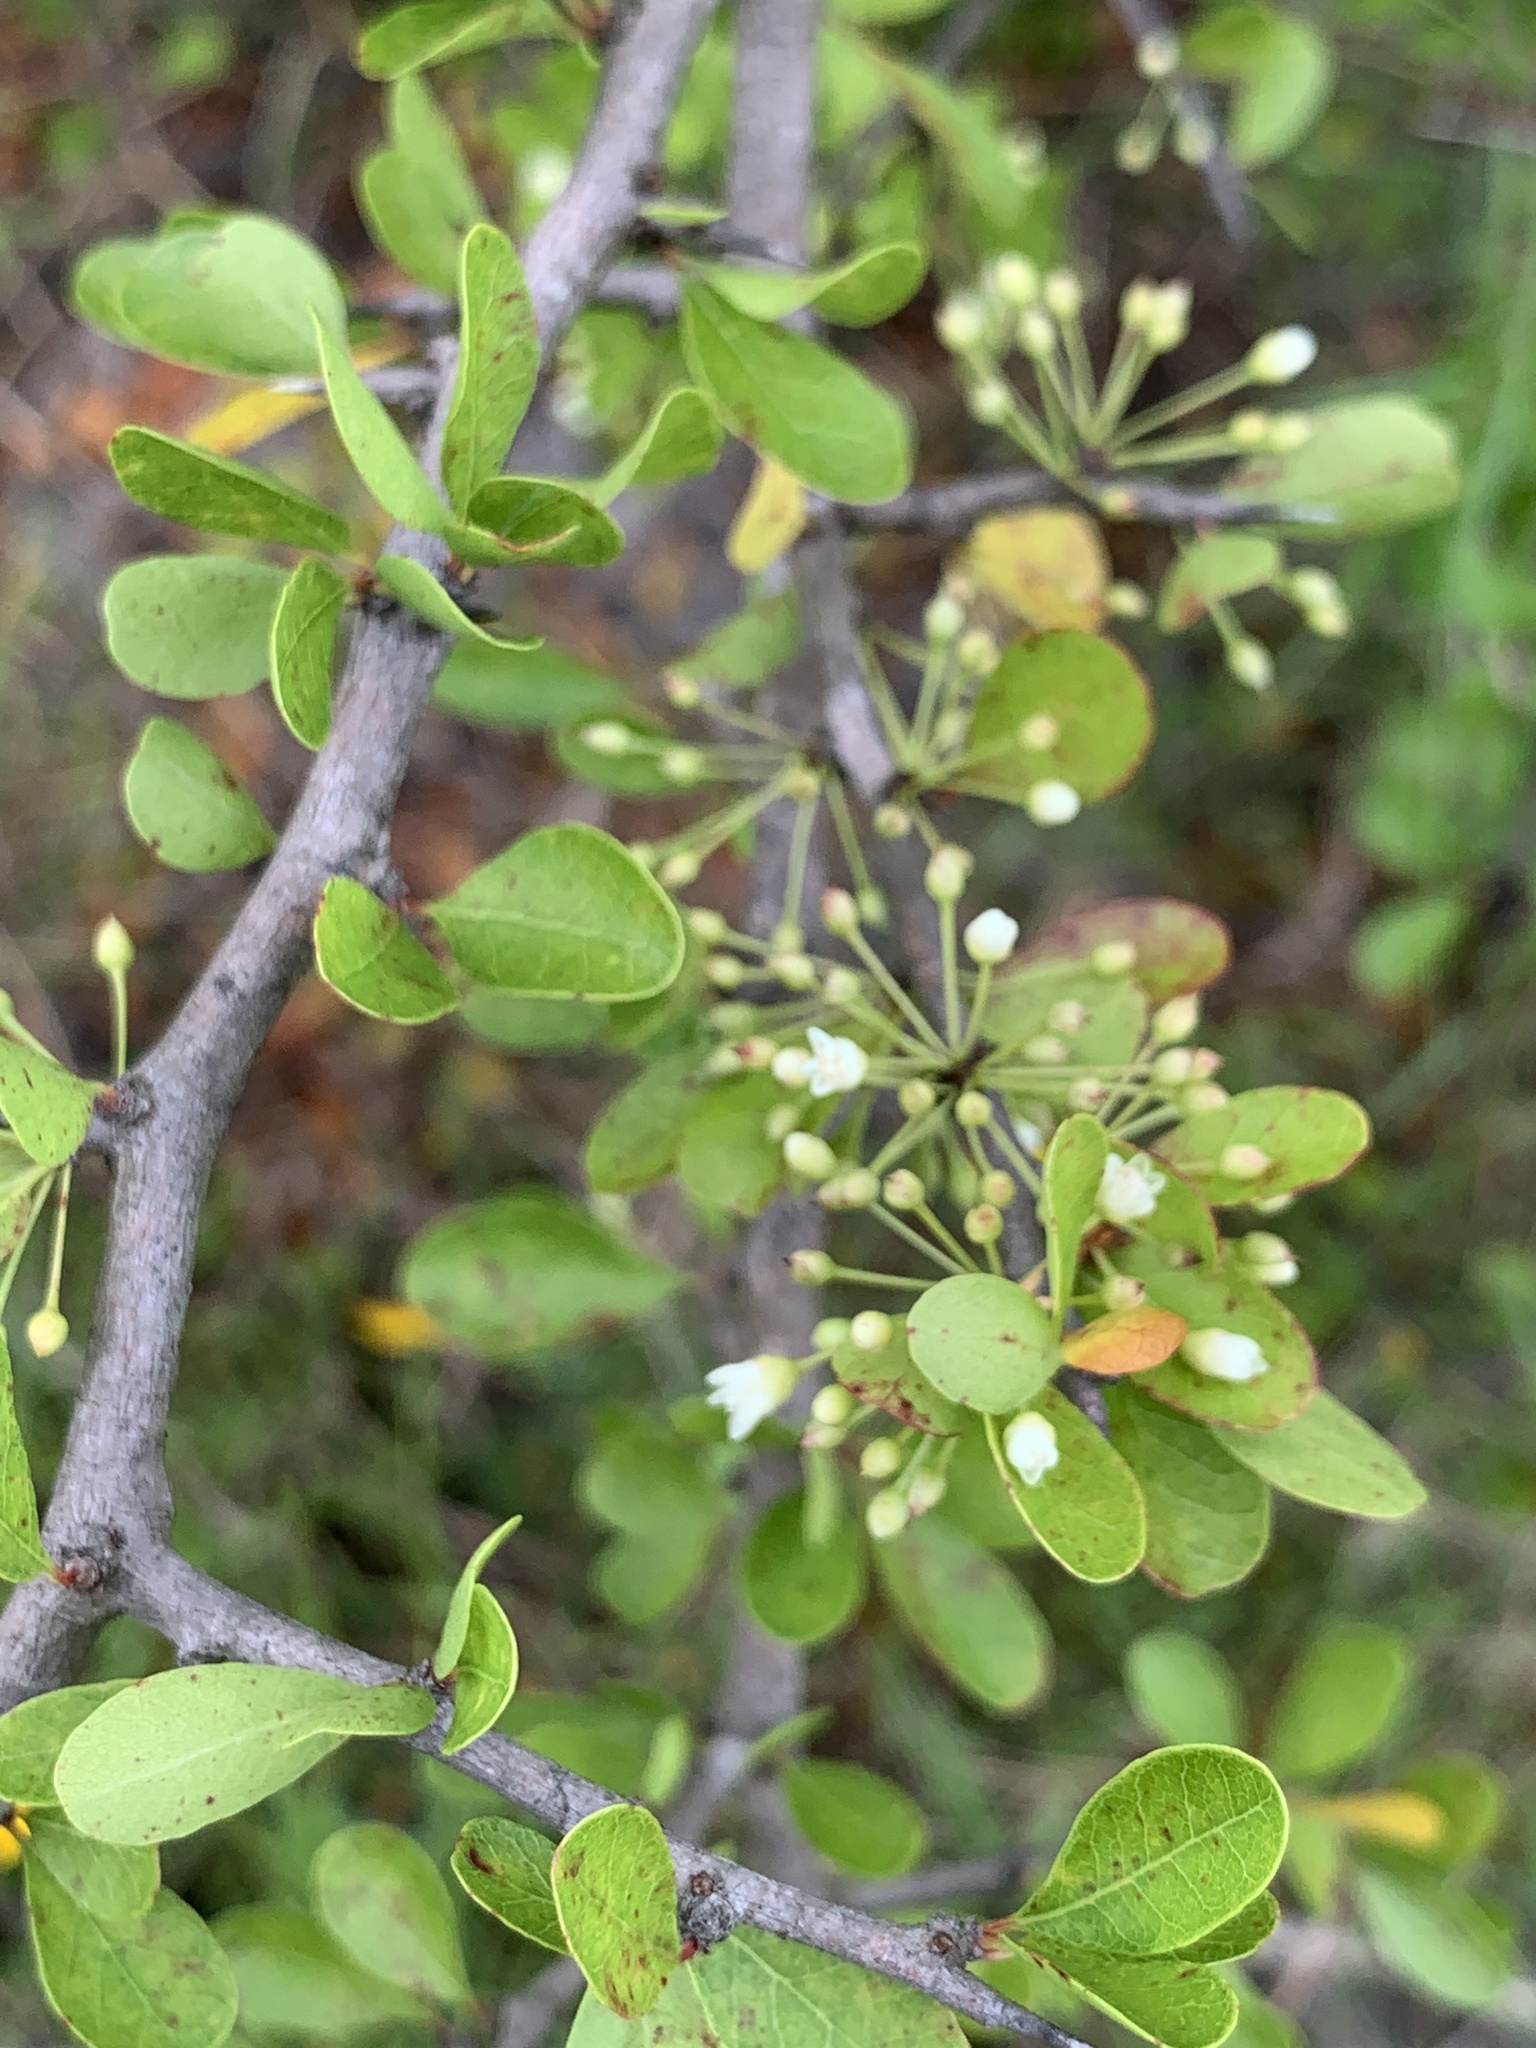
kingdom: Plantae
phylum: Tracheophyta
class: Magnoliopsida
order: Ericales
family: Sapotaceae
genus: Sideroxylon
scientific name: Sideroxylon reclinatum
